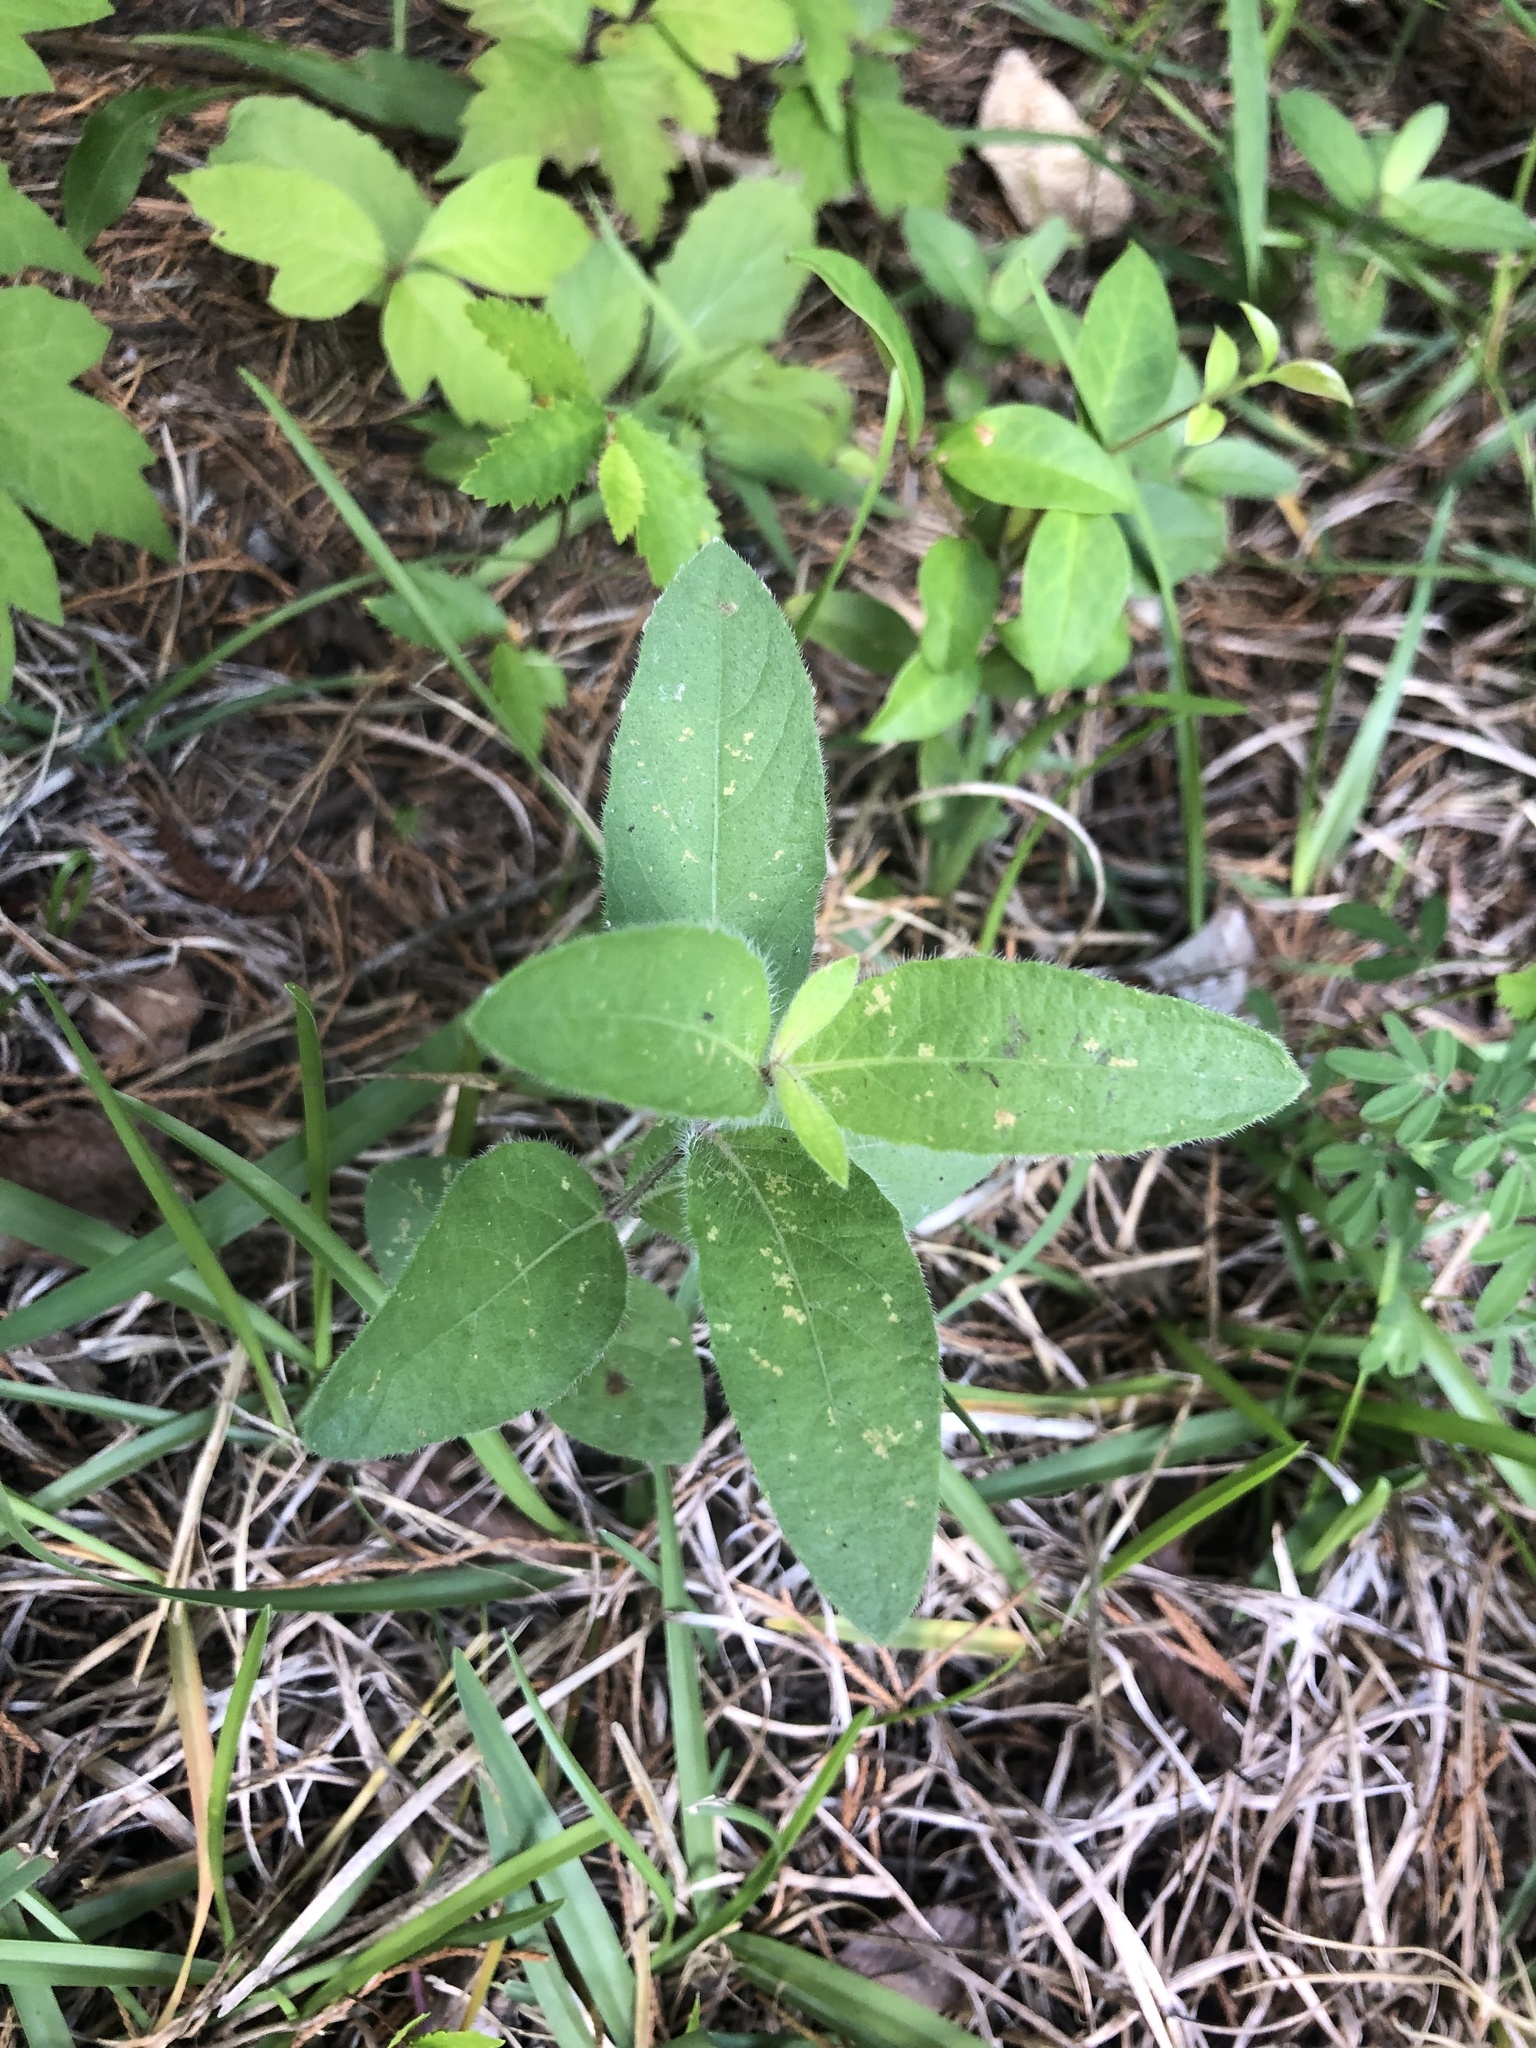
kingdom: Plantae
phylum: Tracheophyta
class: Magnoliopsida
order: Lamiales
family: Acanthaceae
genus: Ruellia
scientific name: Ruellia humilis
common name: Fringe-leaf ruellia
